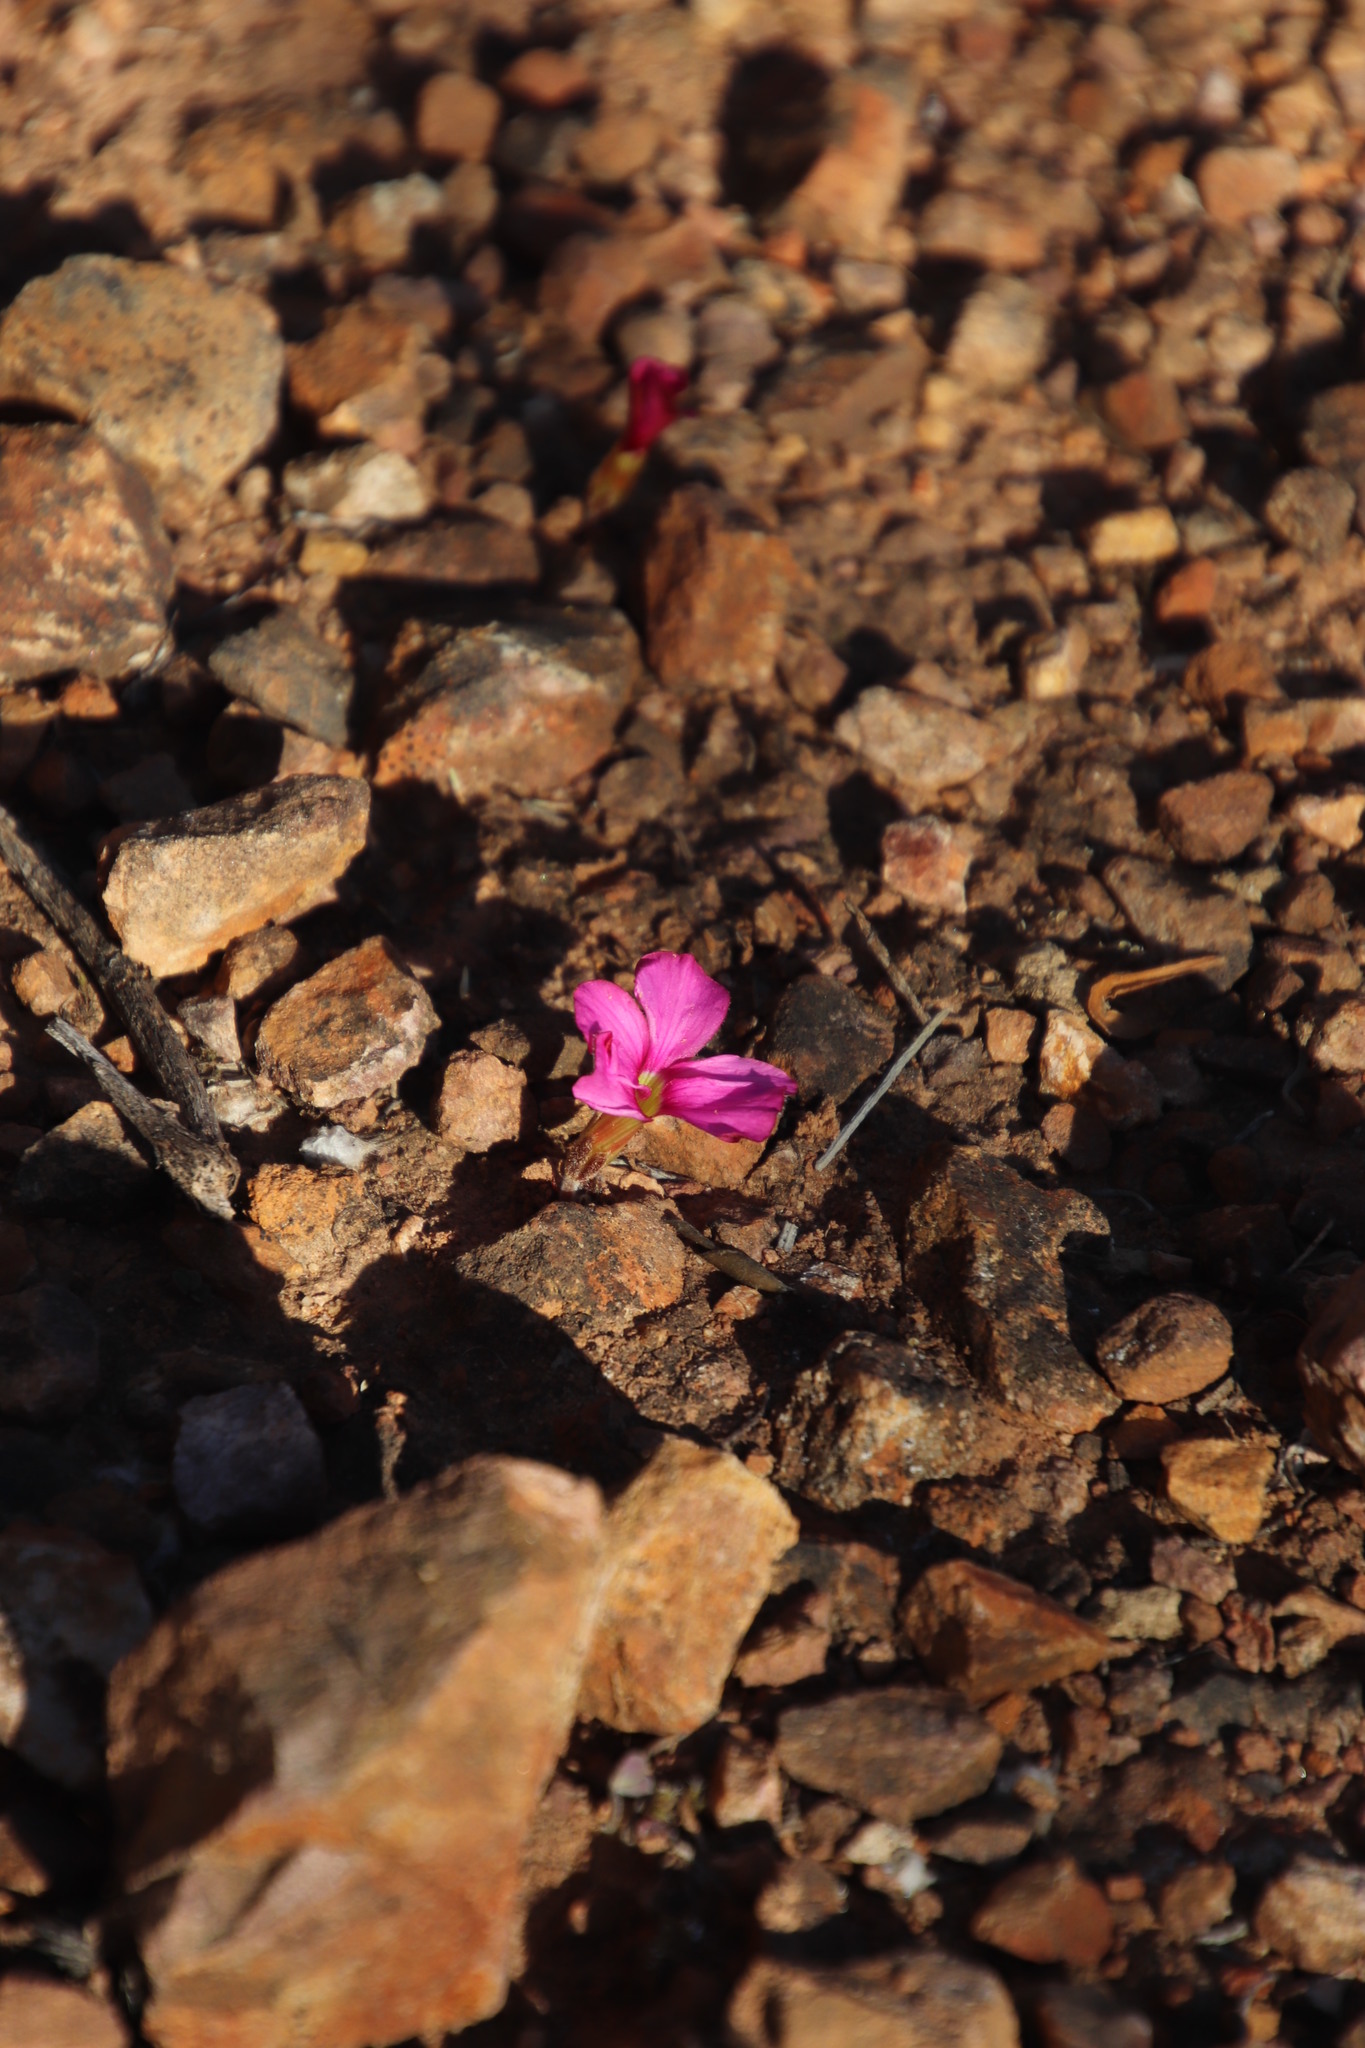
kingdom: Plantae
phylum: Tracheophyta
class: Magnoliopsida
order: Oxalidales
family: Oxalidaceae
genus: Oxalis
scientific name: Oxalis eckloniana
